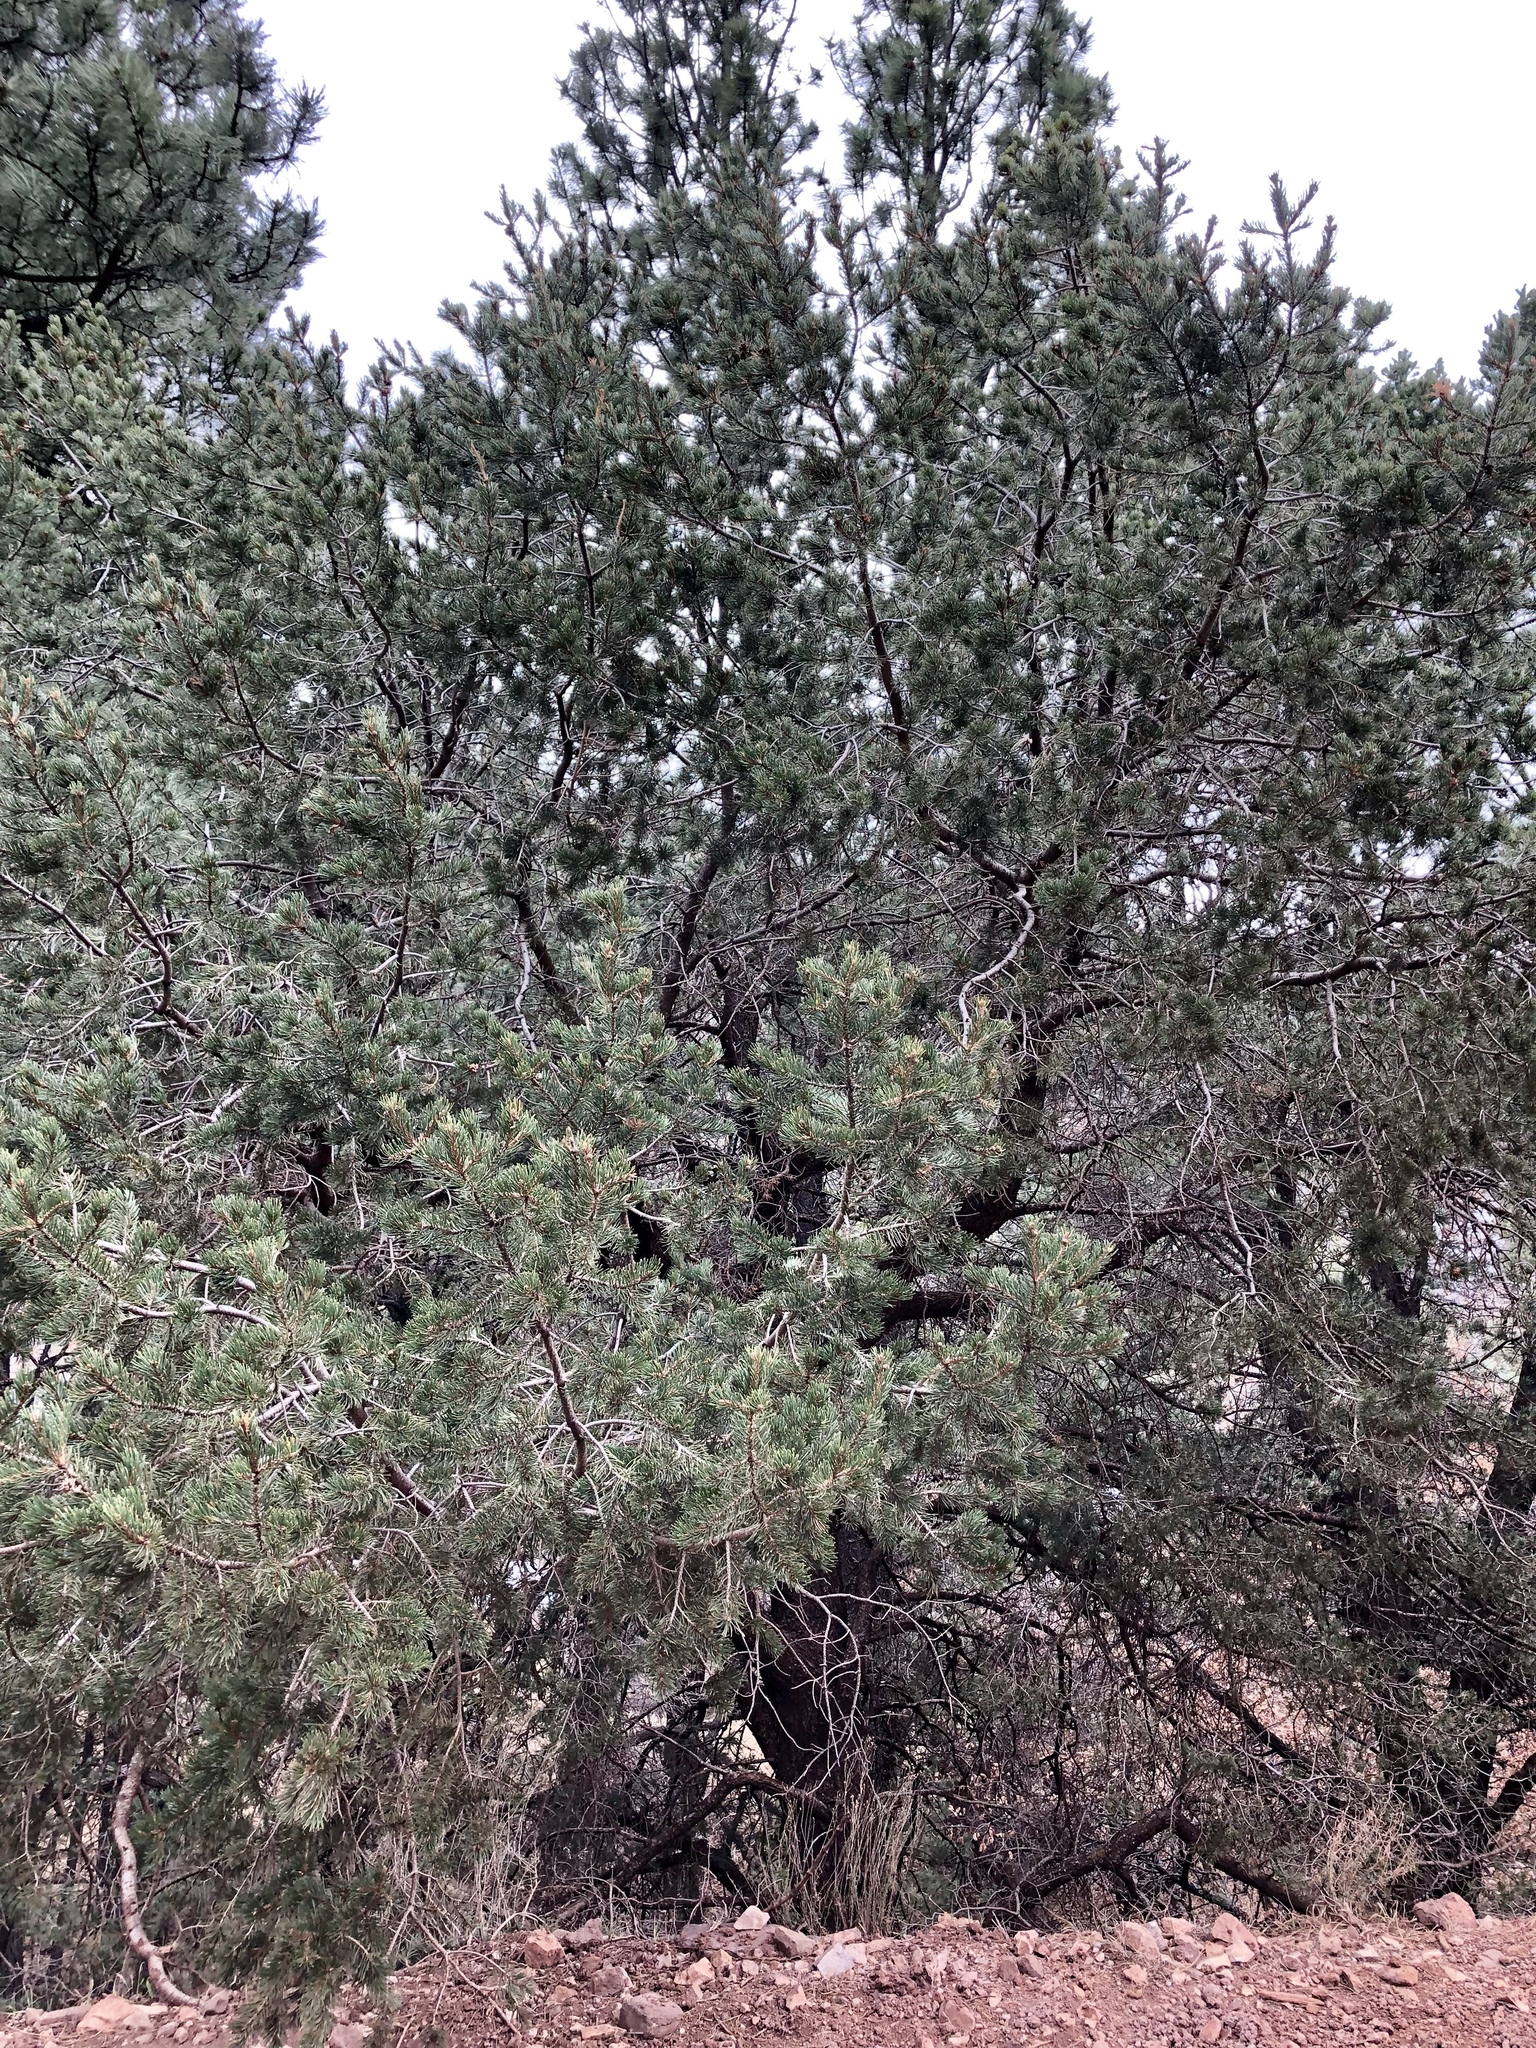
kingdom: Plantae
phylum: Tracheophyta
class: Pinopsida
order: Pinales
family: Pinaceae
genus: Pinus
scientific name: Pinus edulis
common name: Colorado pinyon
